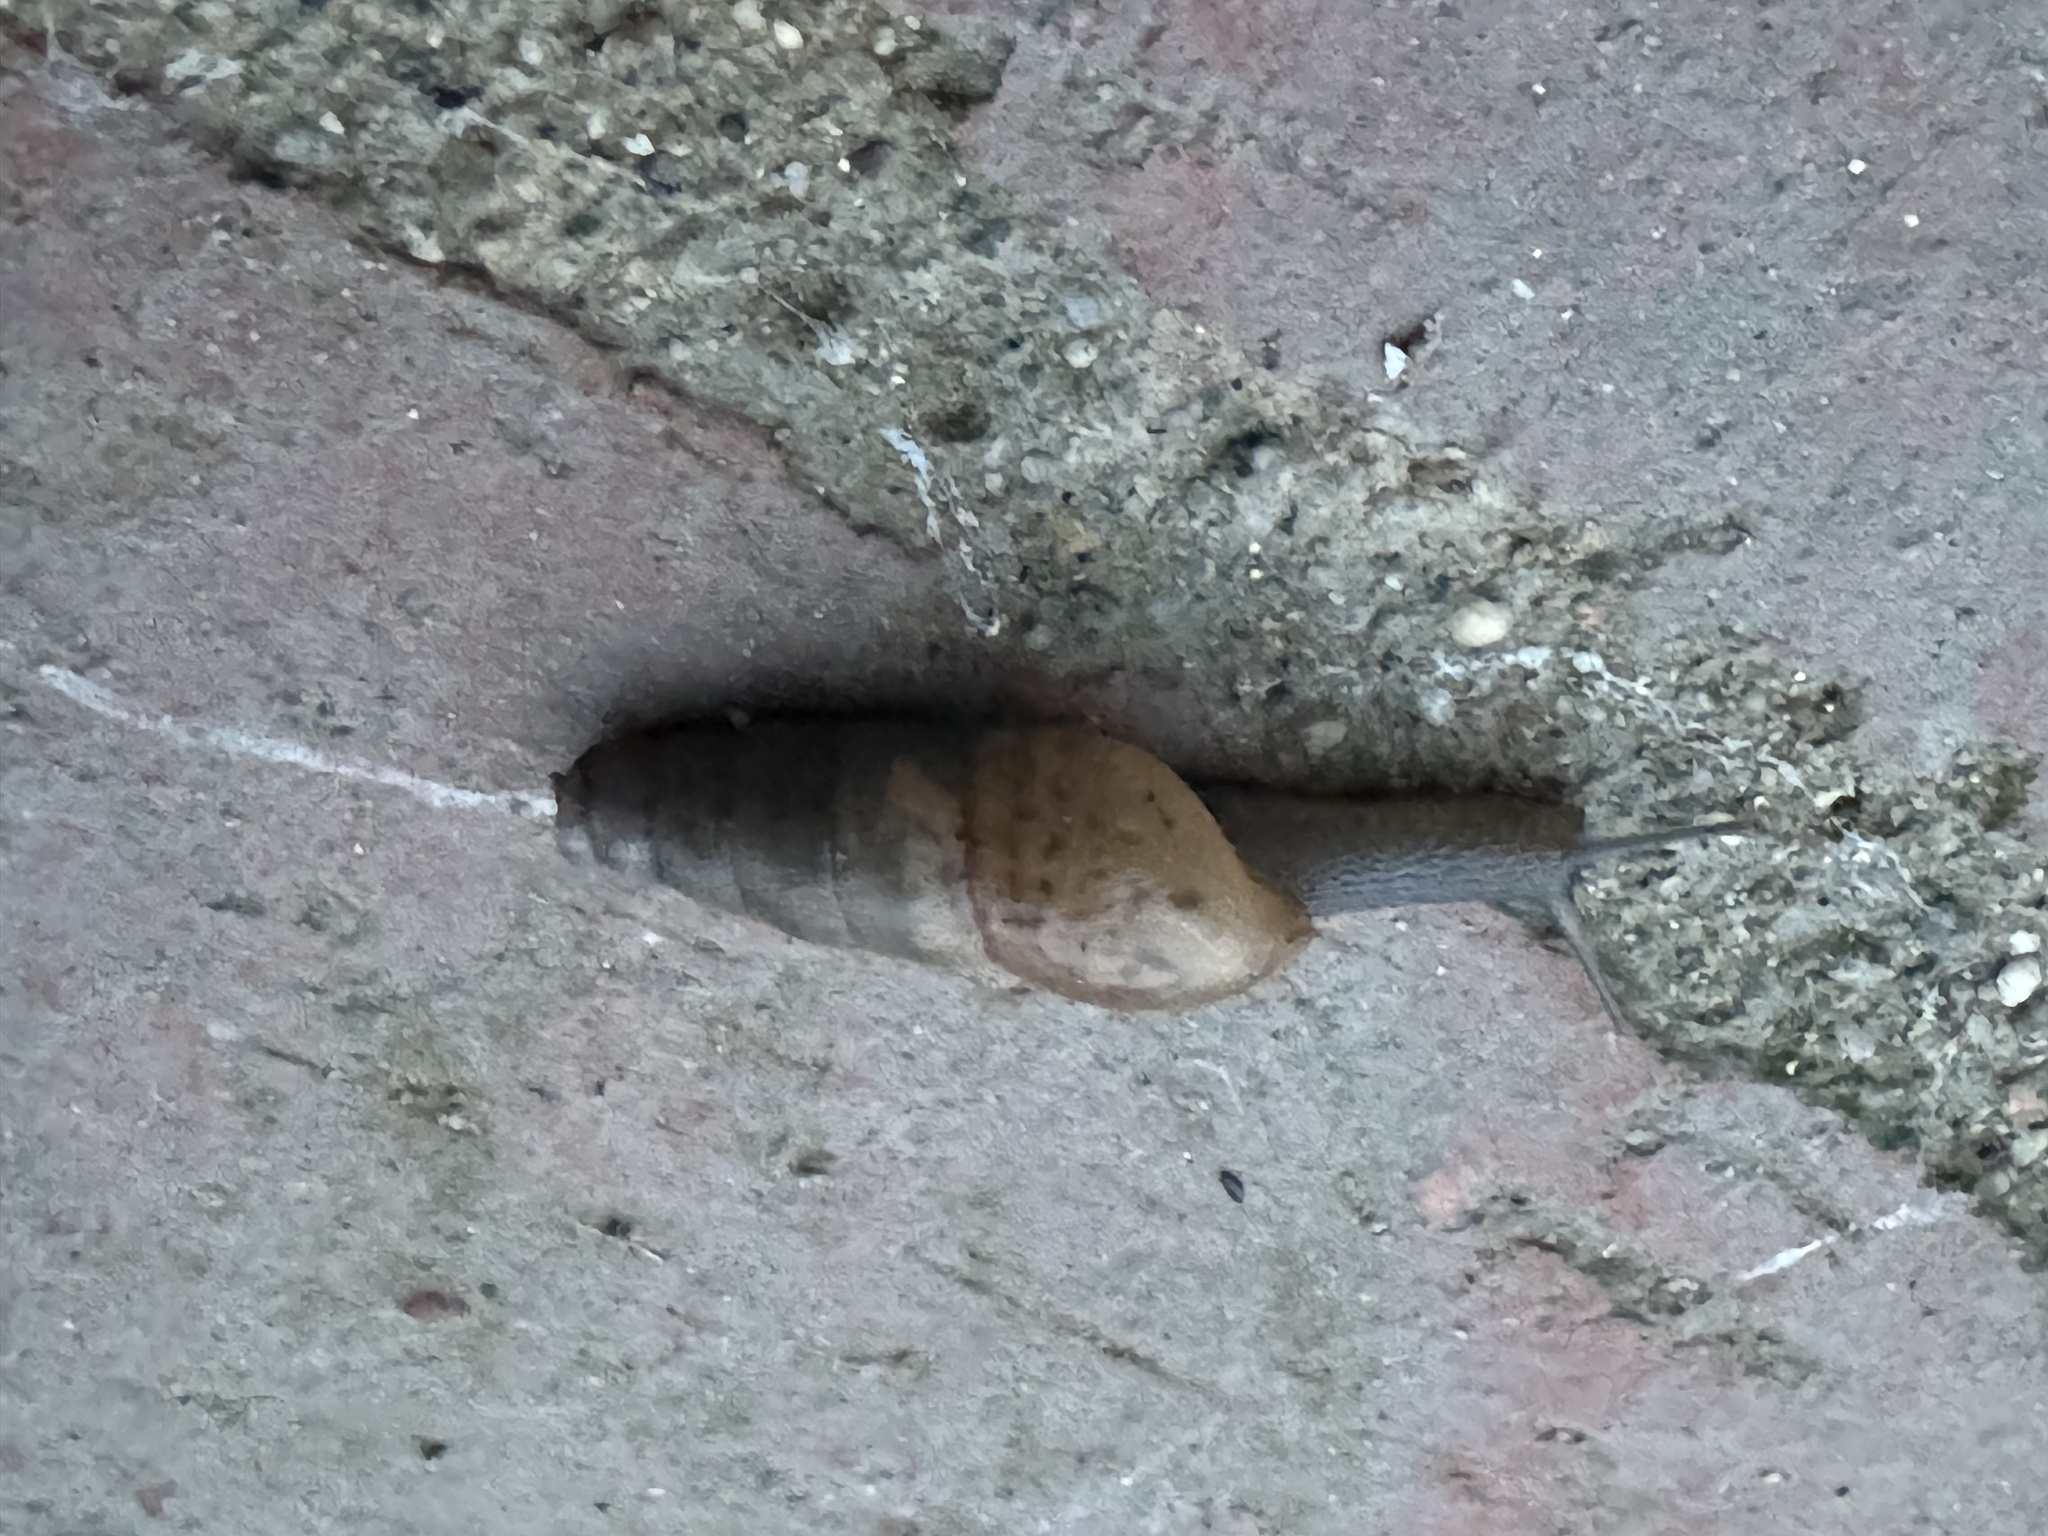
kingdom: Animalia
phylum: Mollusca
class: Gastropoda
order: Stylommatophora
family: Achatinidae
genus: Rumina
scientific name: Rumina decollata
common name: Decollate snail
